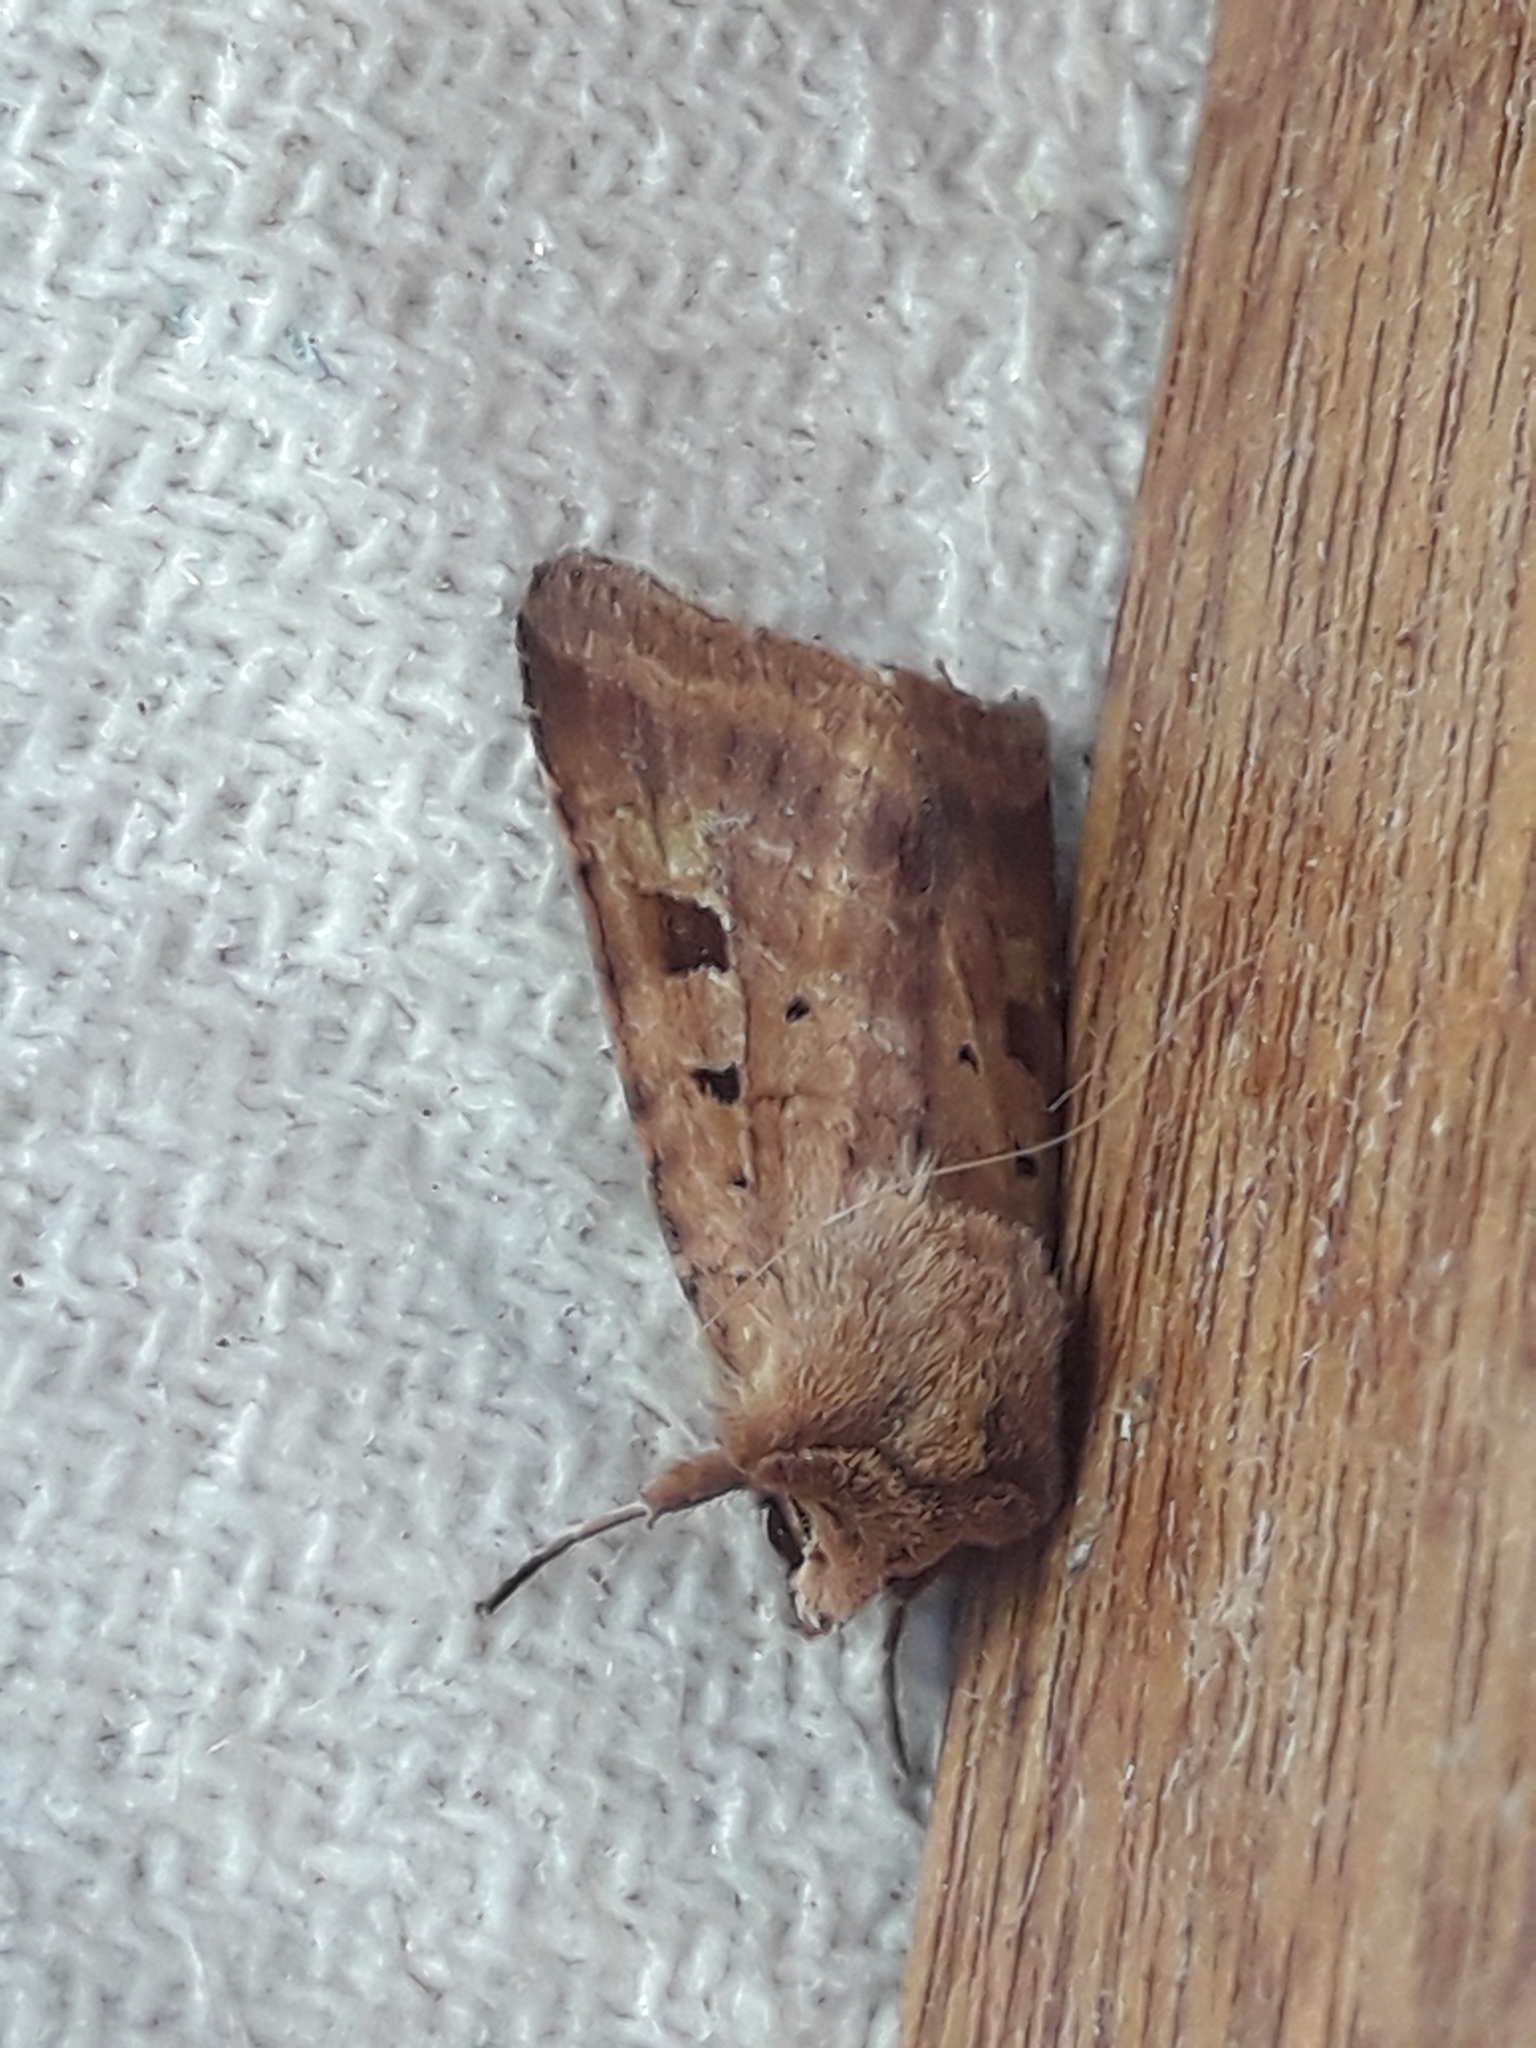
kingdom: Animalia
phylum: Arthropoda
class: Insecta
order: Lepidoptera
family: Noctuidae
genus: Diarsia
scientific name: Diarsia mendica
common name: Ingrailed clay
